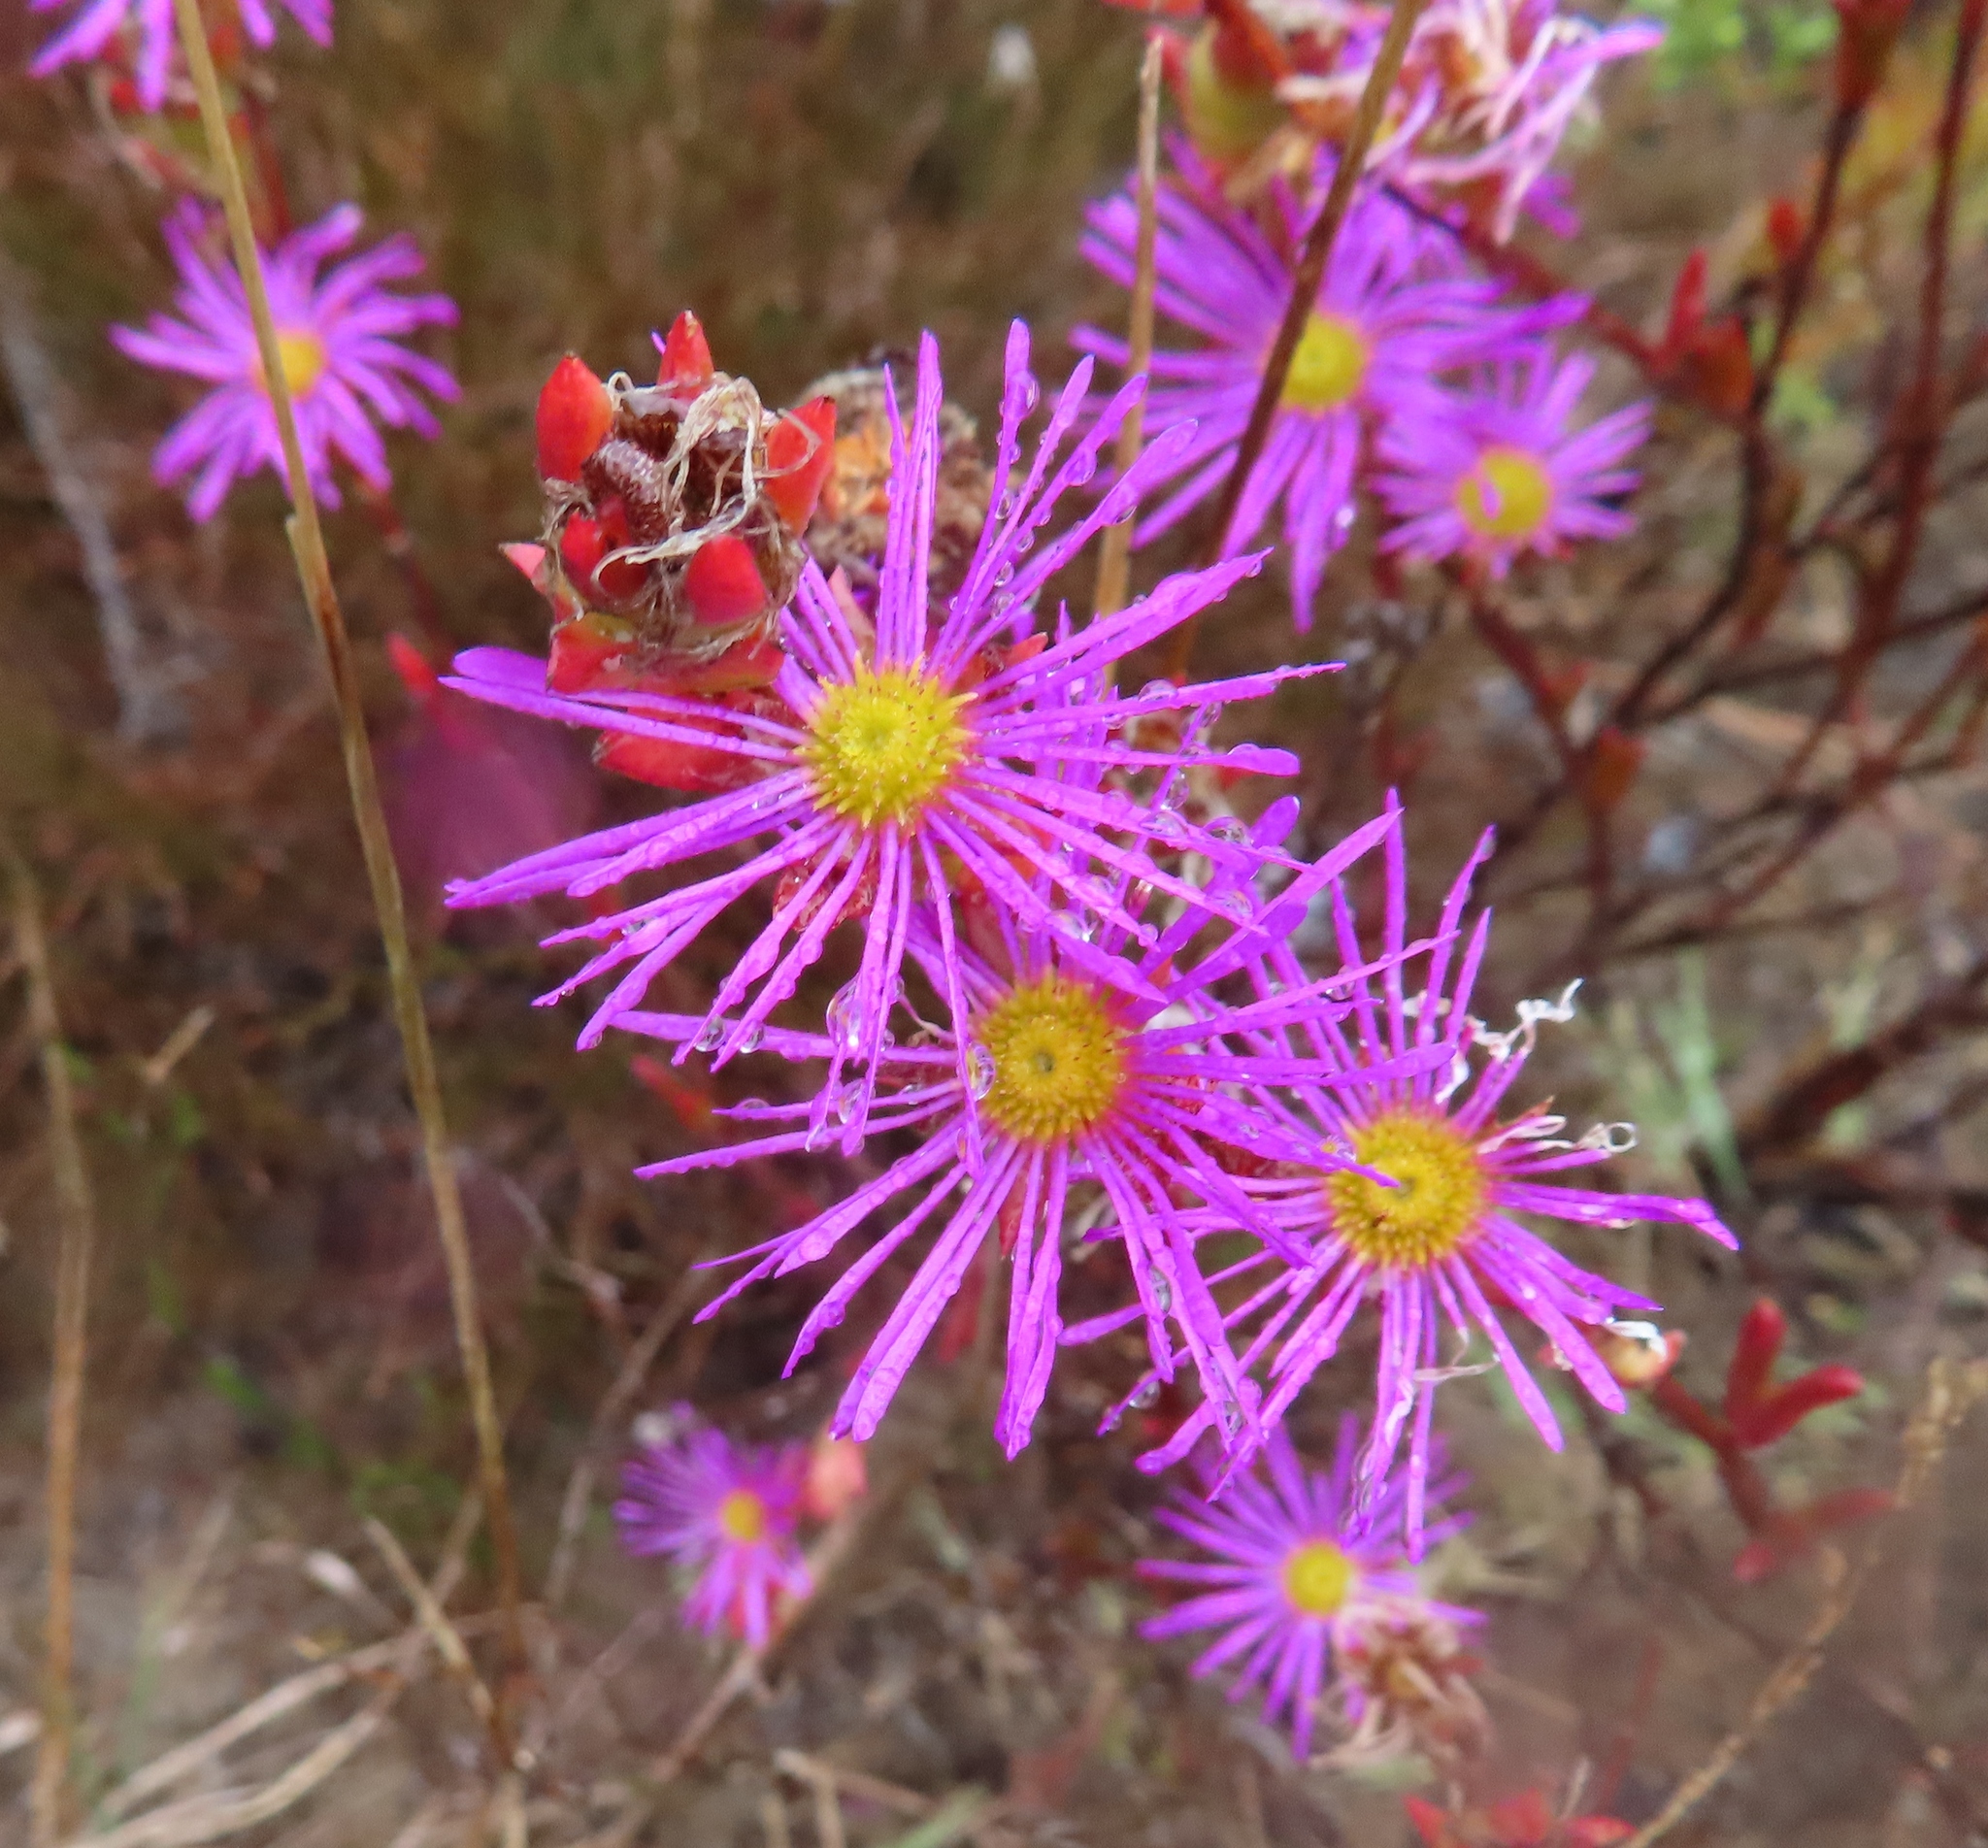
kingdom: Plantae
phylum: Tracheophyta
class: Magnoliopsida
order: Caryophyllales
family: Aizoaceae
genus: Erepsia
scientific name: Erepsia bracteata
